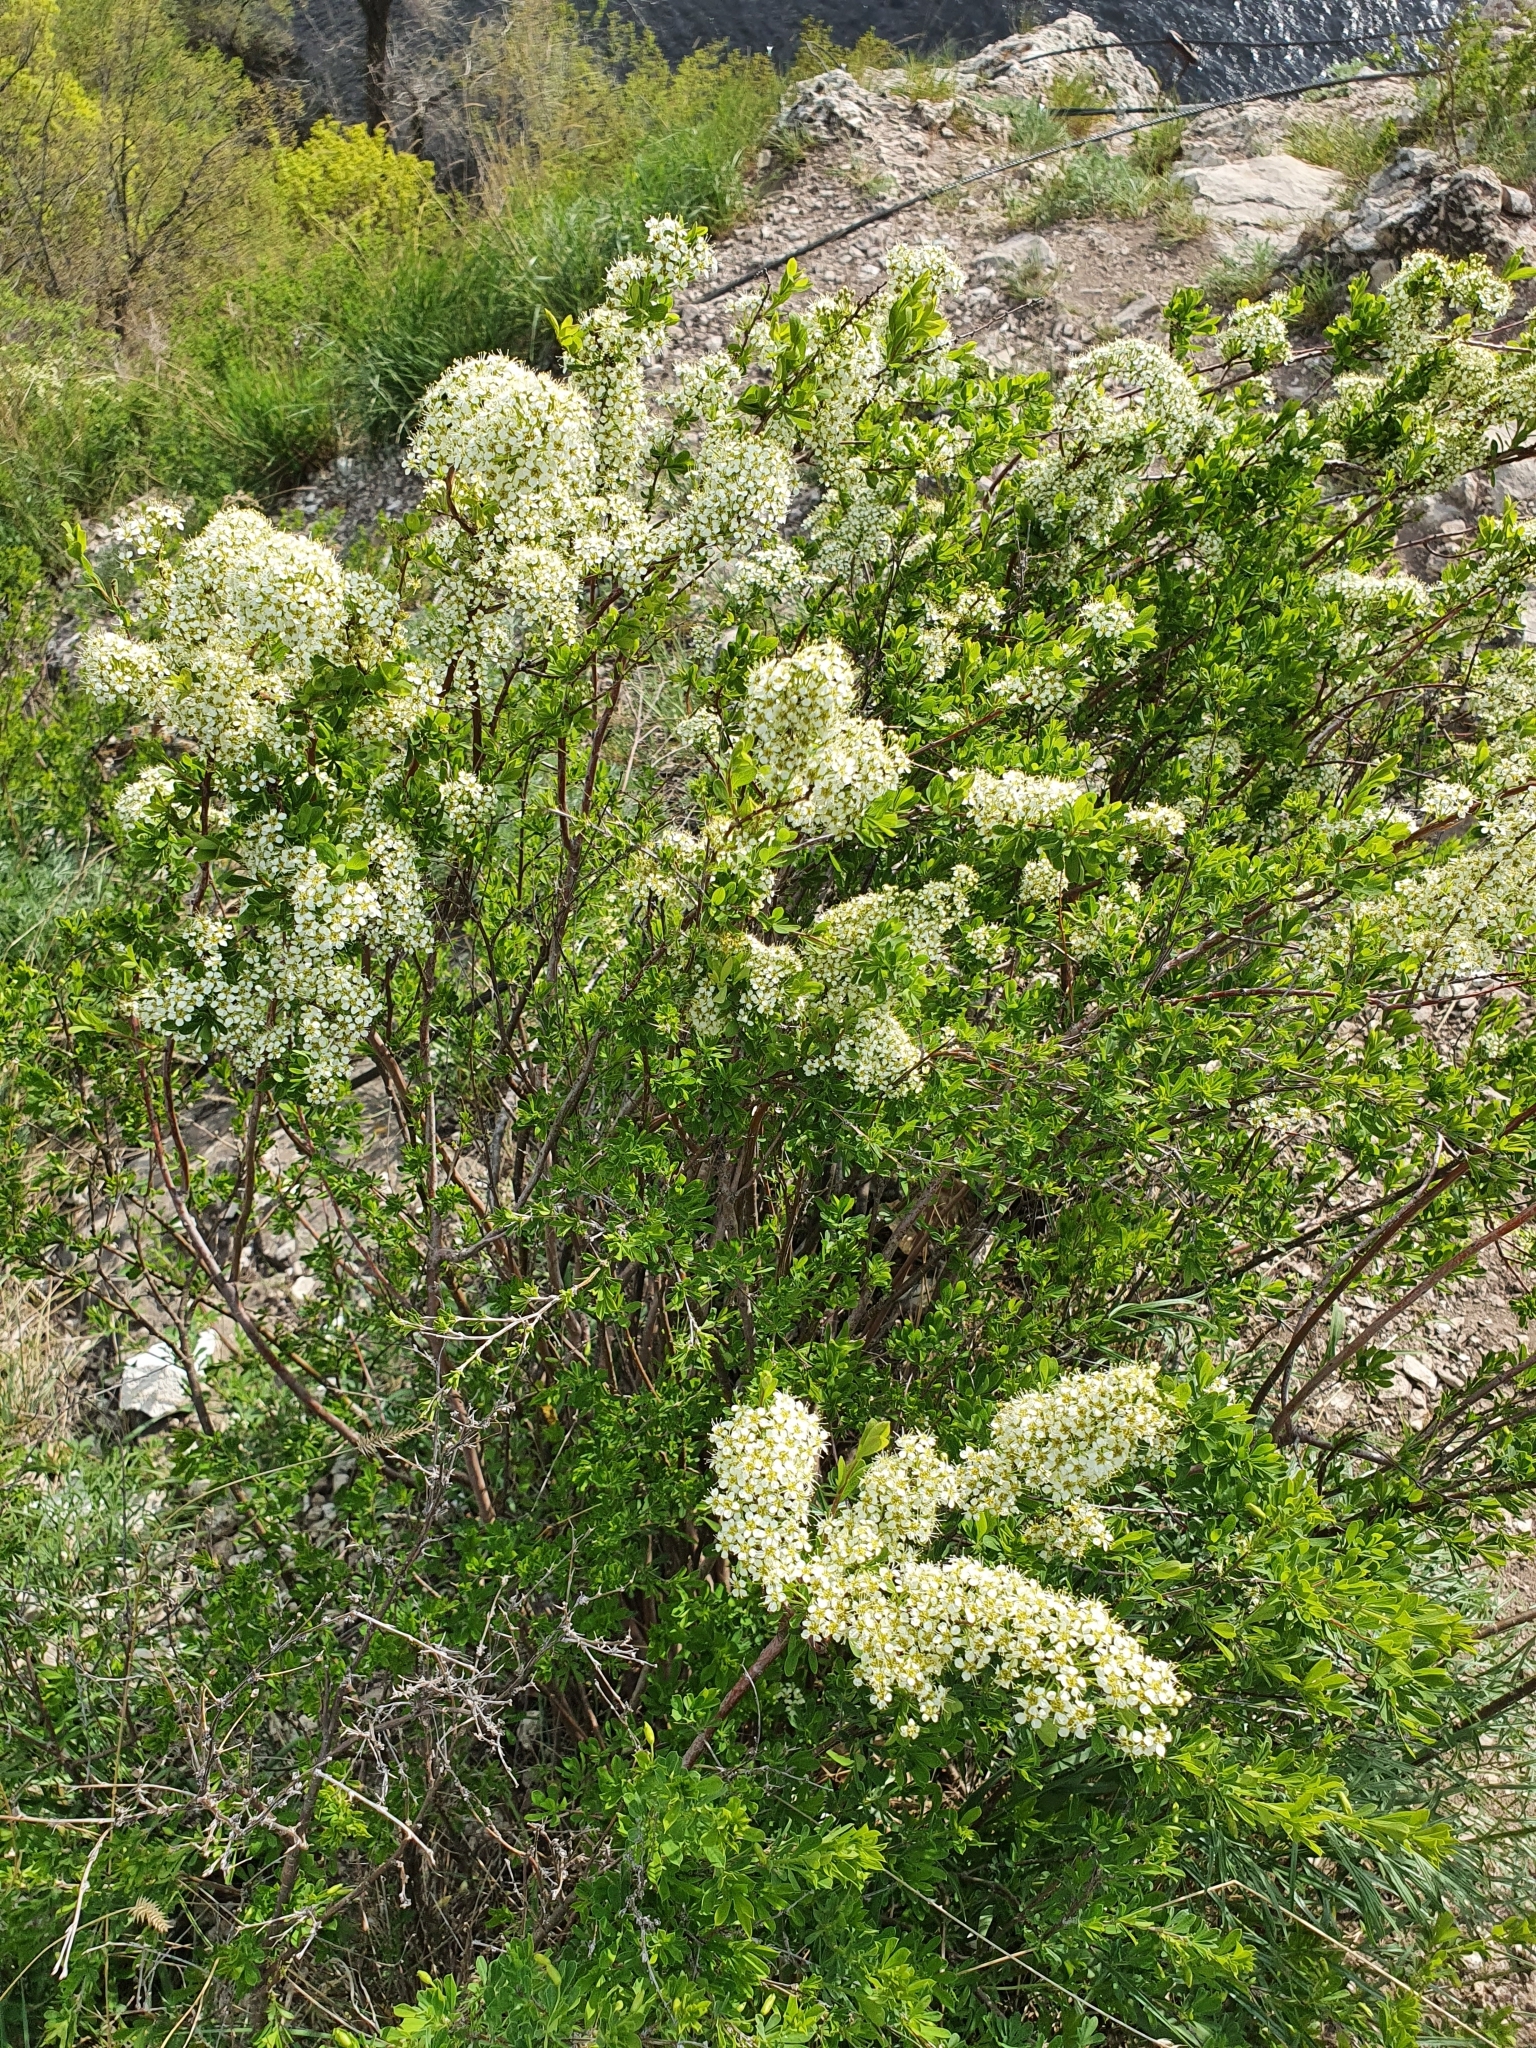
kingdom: Plantae
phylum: Tracheophyta
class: Magnoliopsida
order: Rosales
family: Rosaceae
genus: Spiraea
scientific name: Spiraea hypericifolia
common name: Iberian spirea
